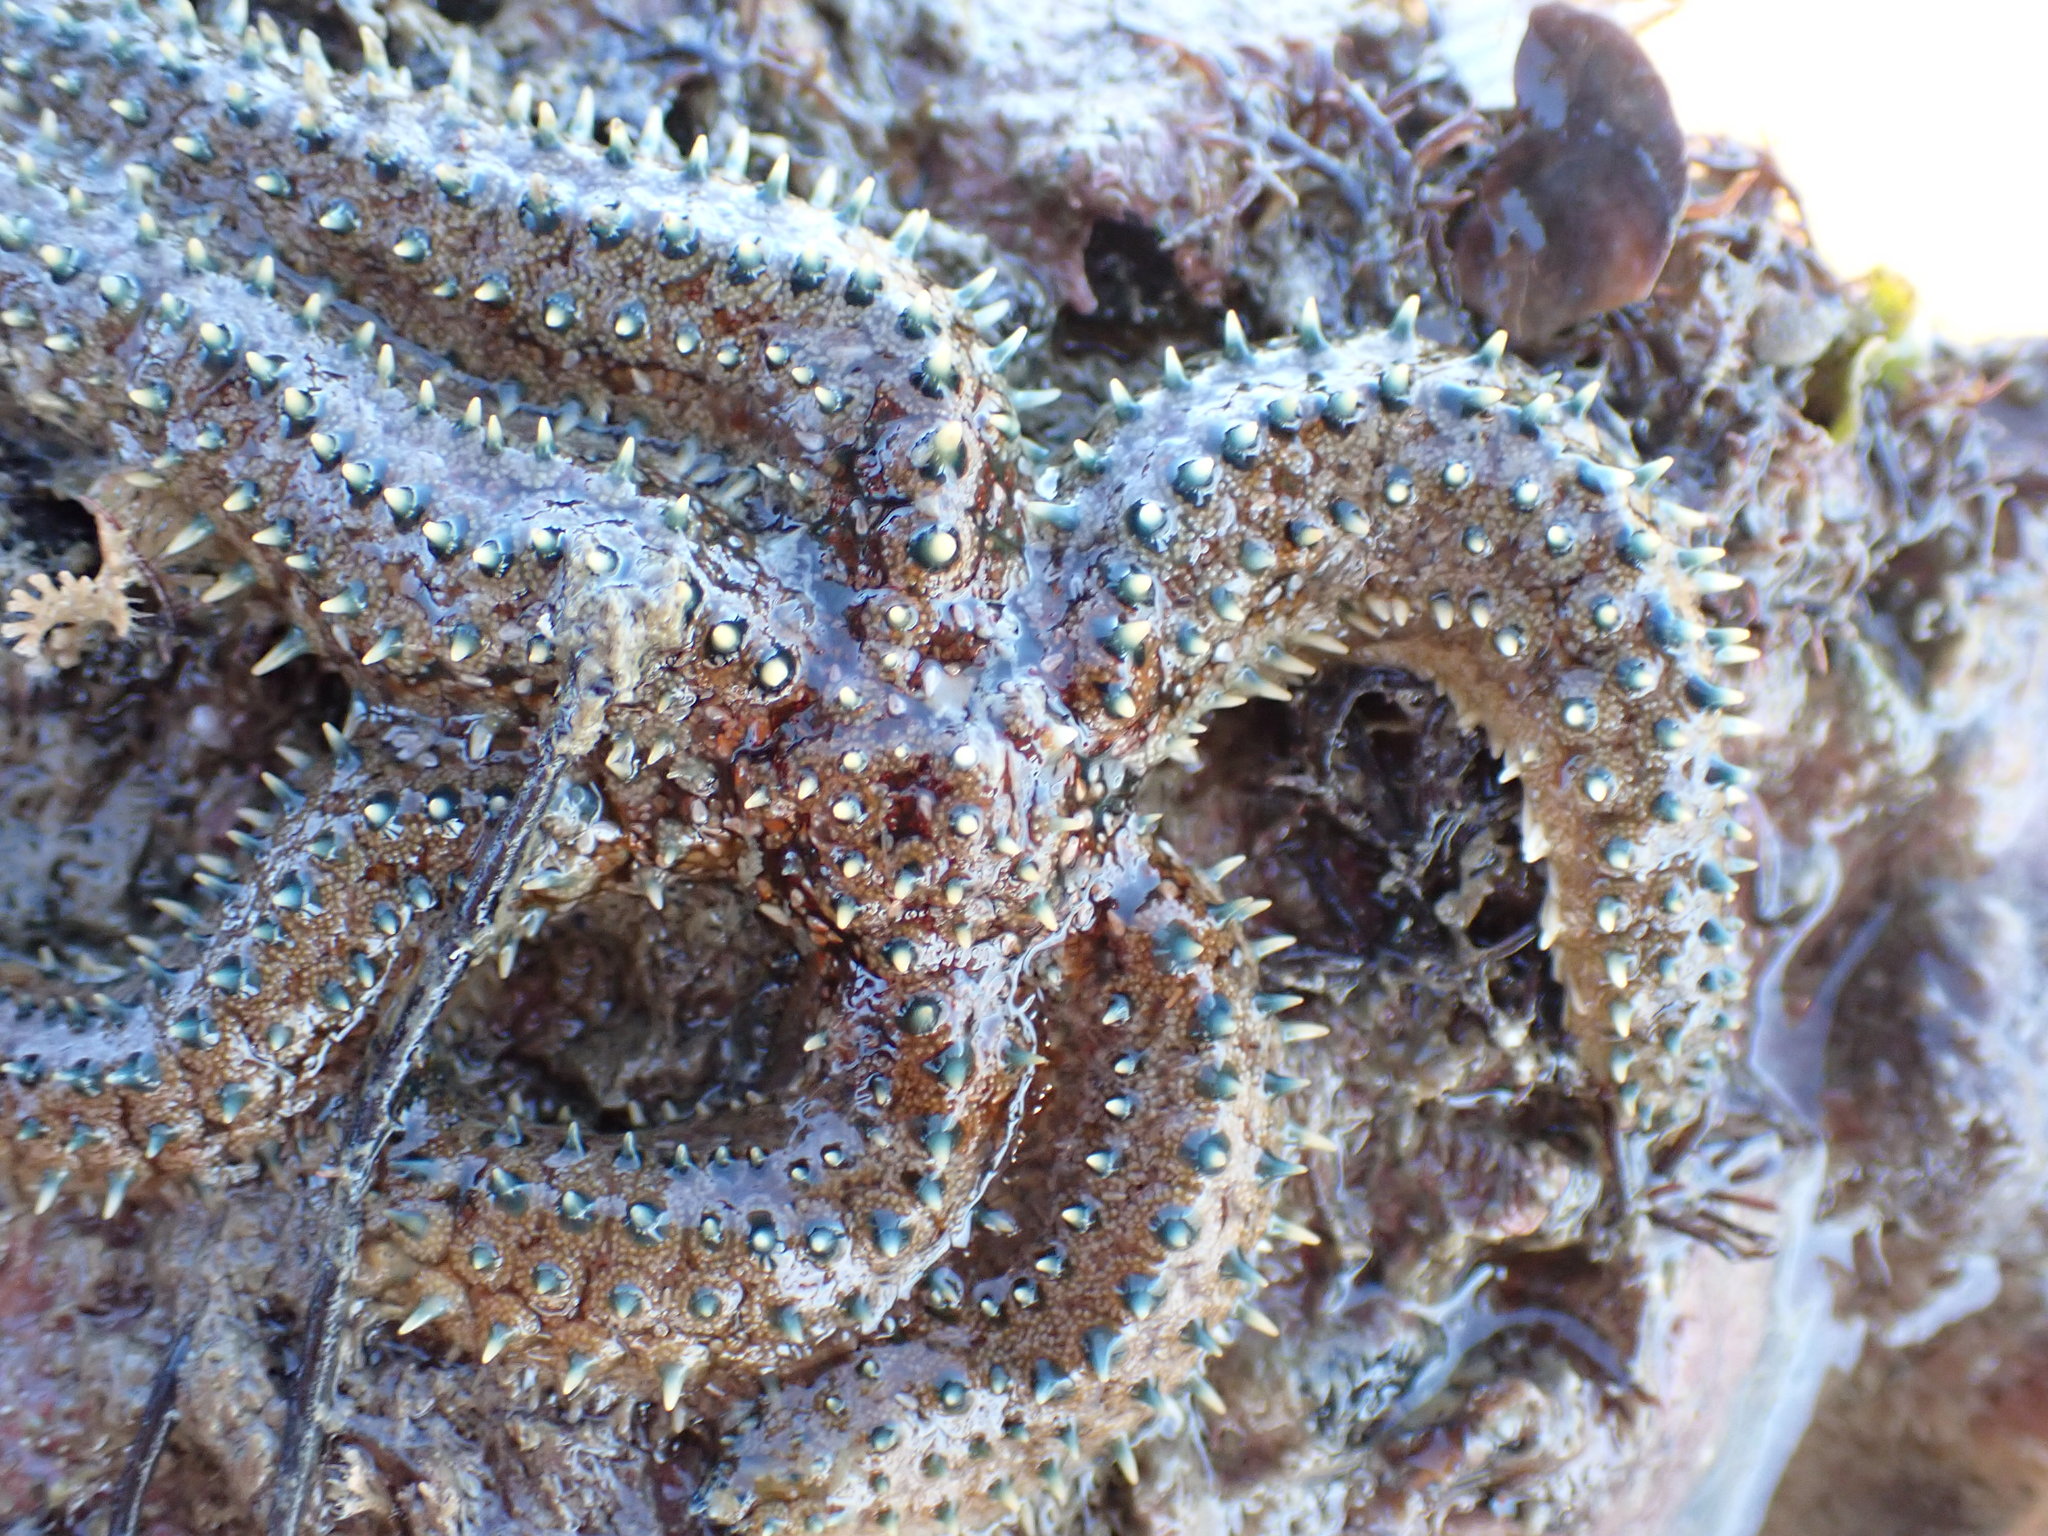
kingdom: Animalia
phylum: Echinodermata
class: Asteroidea
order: Forcipulatida
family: Asteriidae
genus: Coscinasterias
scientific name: Coscinasterias muricata
